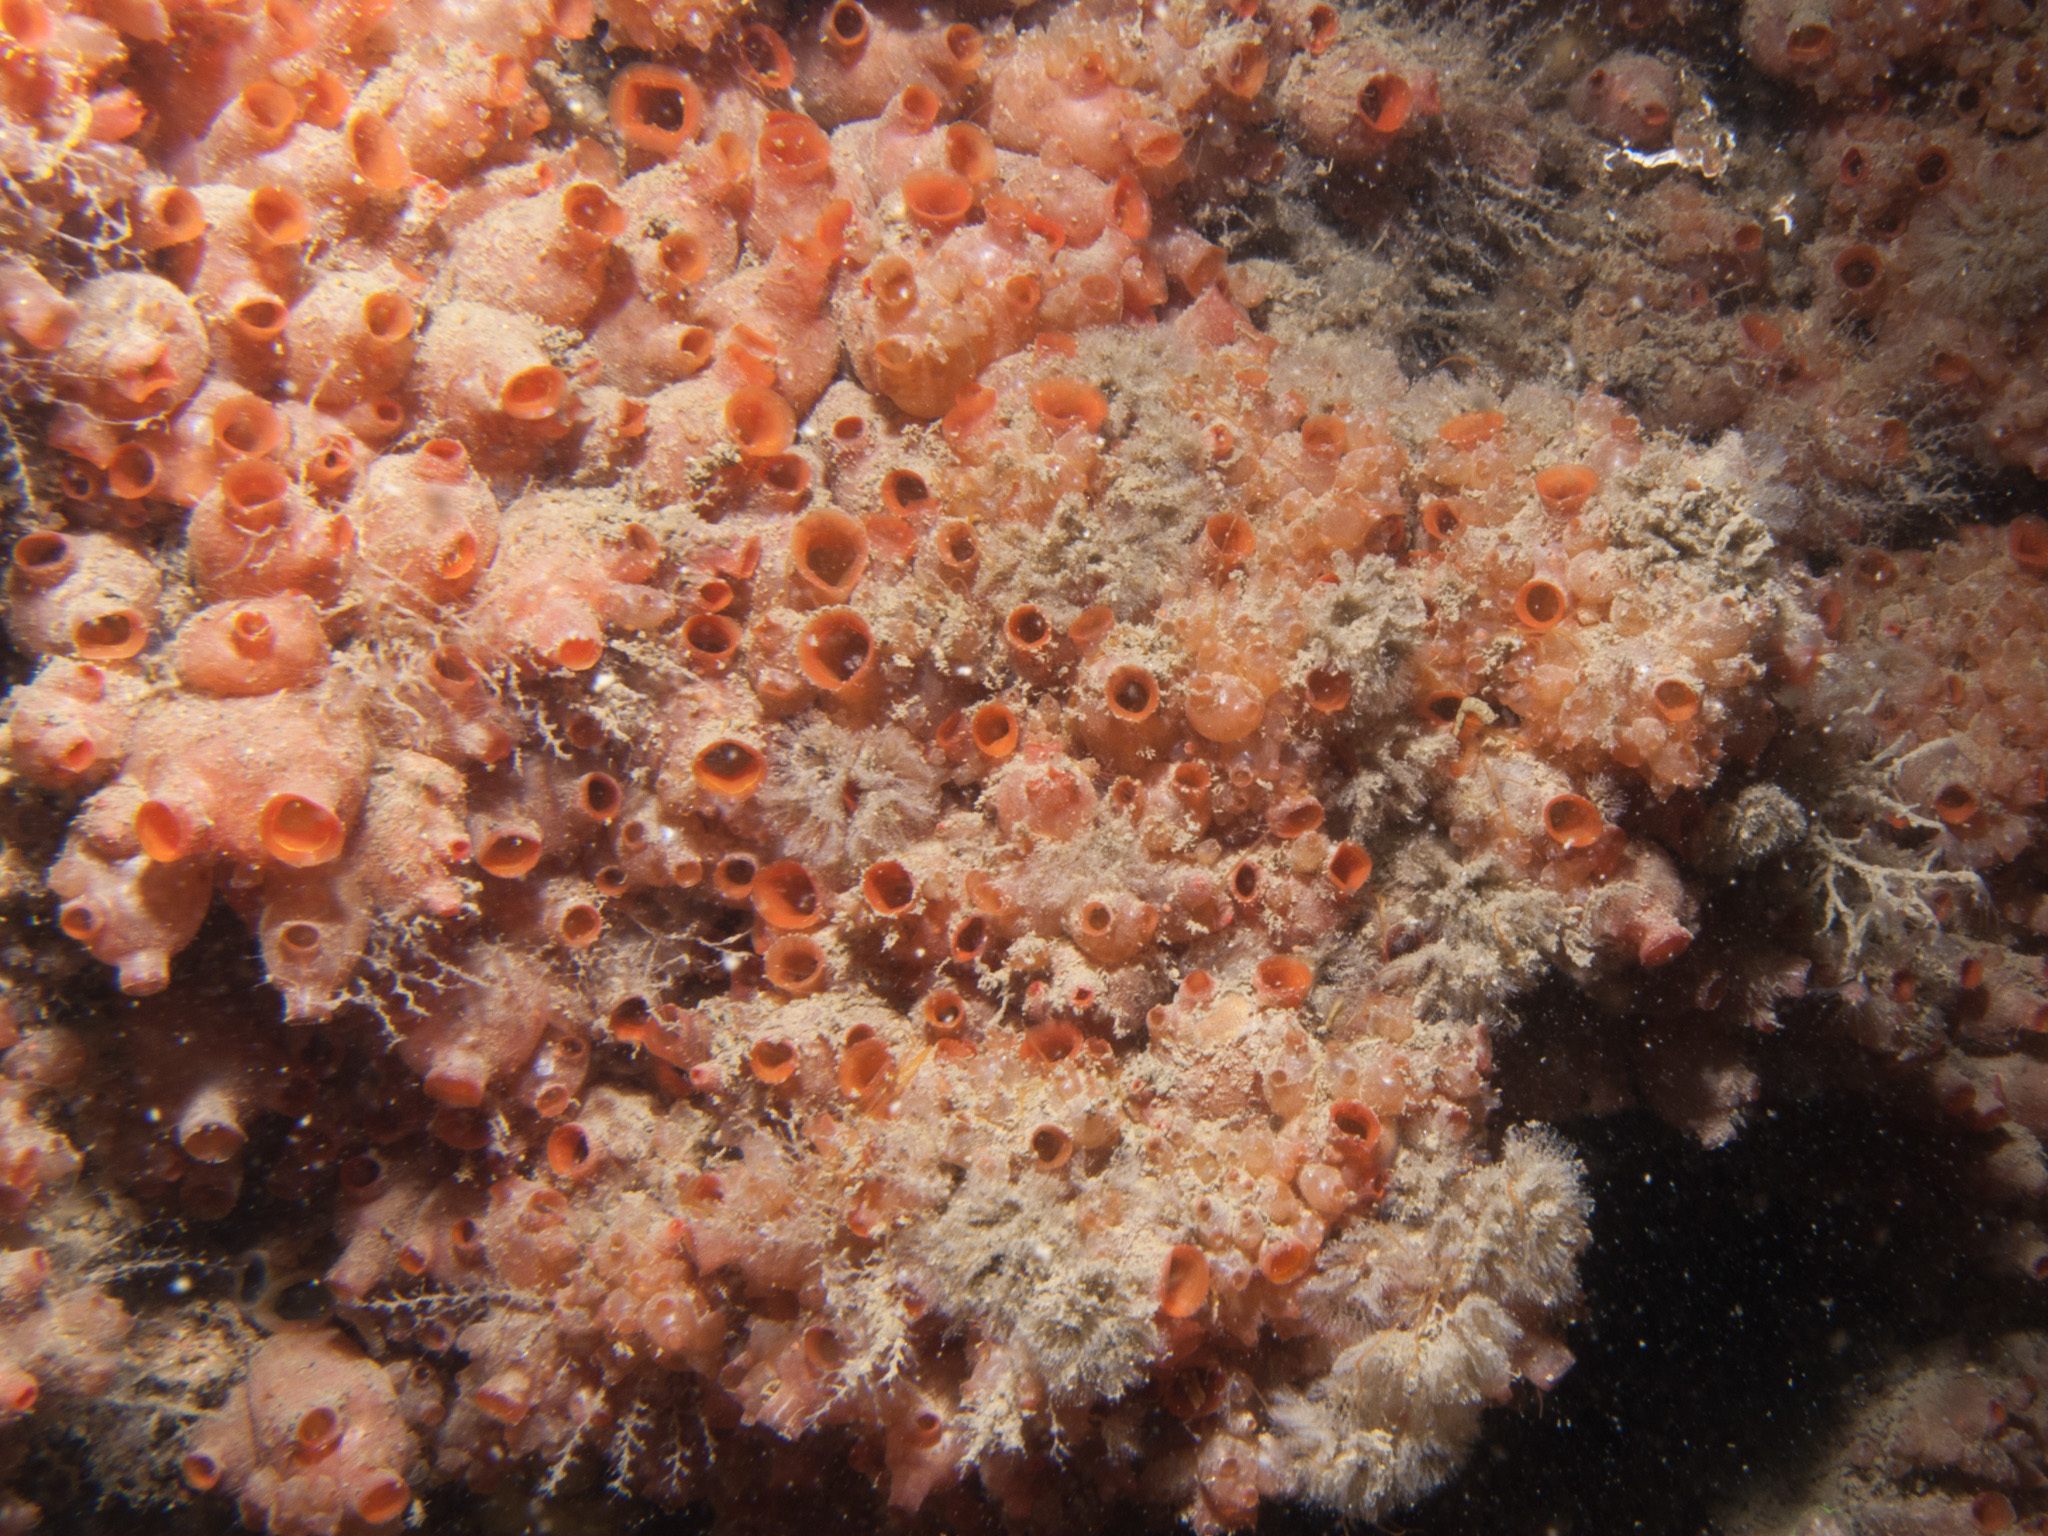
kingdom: Animalia
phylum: Chordata
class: Ascidiacea
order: Stolidobranchia
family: Styelidae
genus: Dendrodoa
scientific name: Dendrodoa grossularia
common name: Baked bean ascidian
